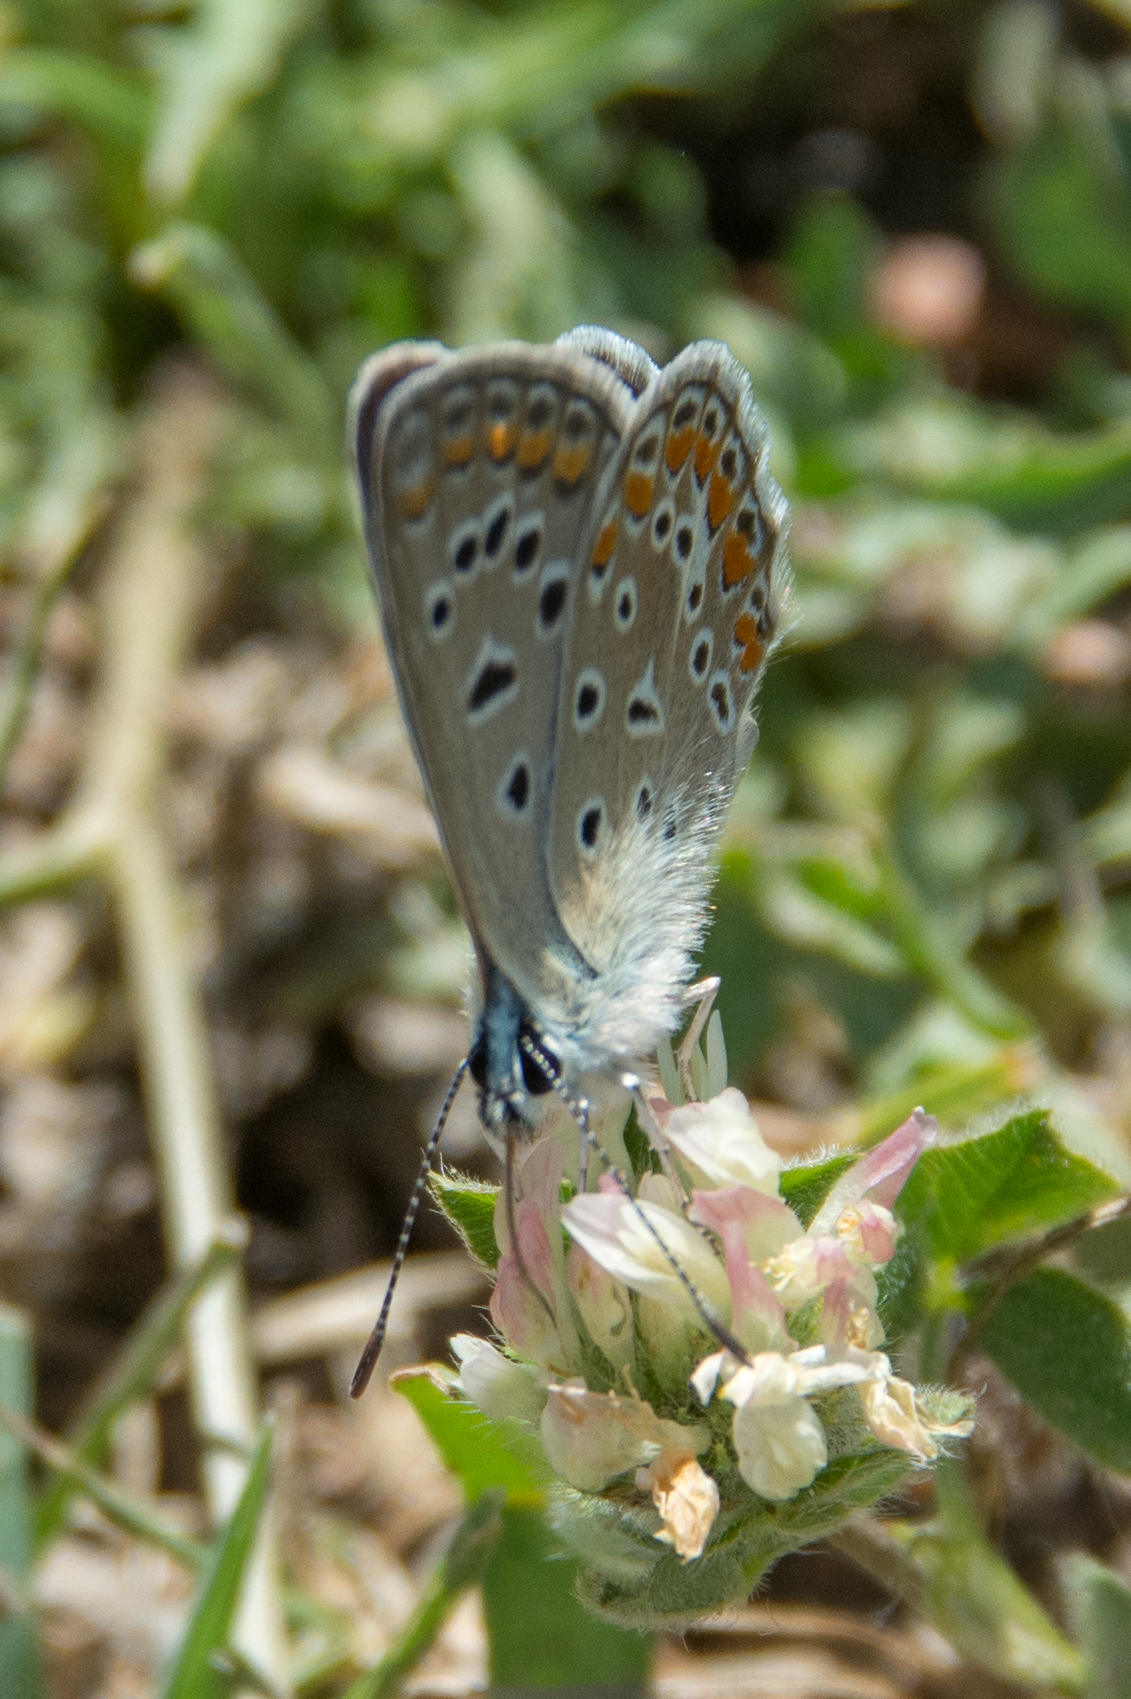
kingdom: Animalia
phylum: Arthropoda
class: Insecta
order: Lepidoptera
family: Lycaenidae
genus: Polyommatus
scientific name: Polyommatus celina
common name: Austaut's blue
